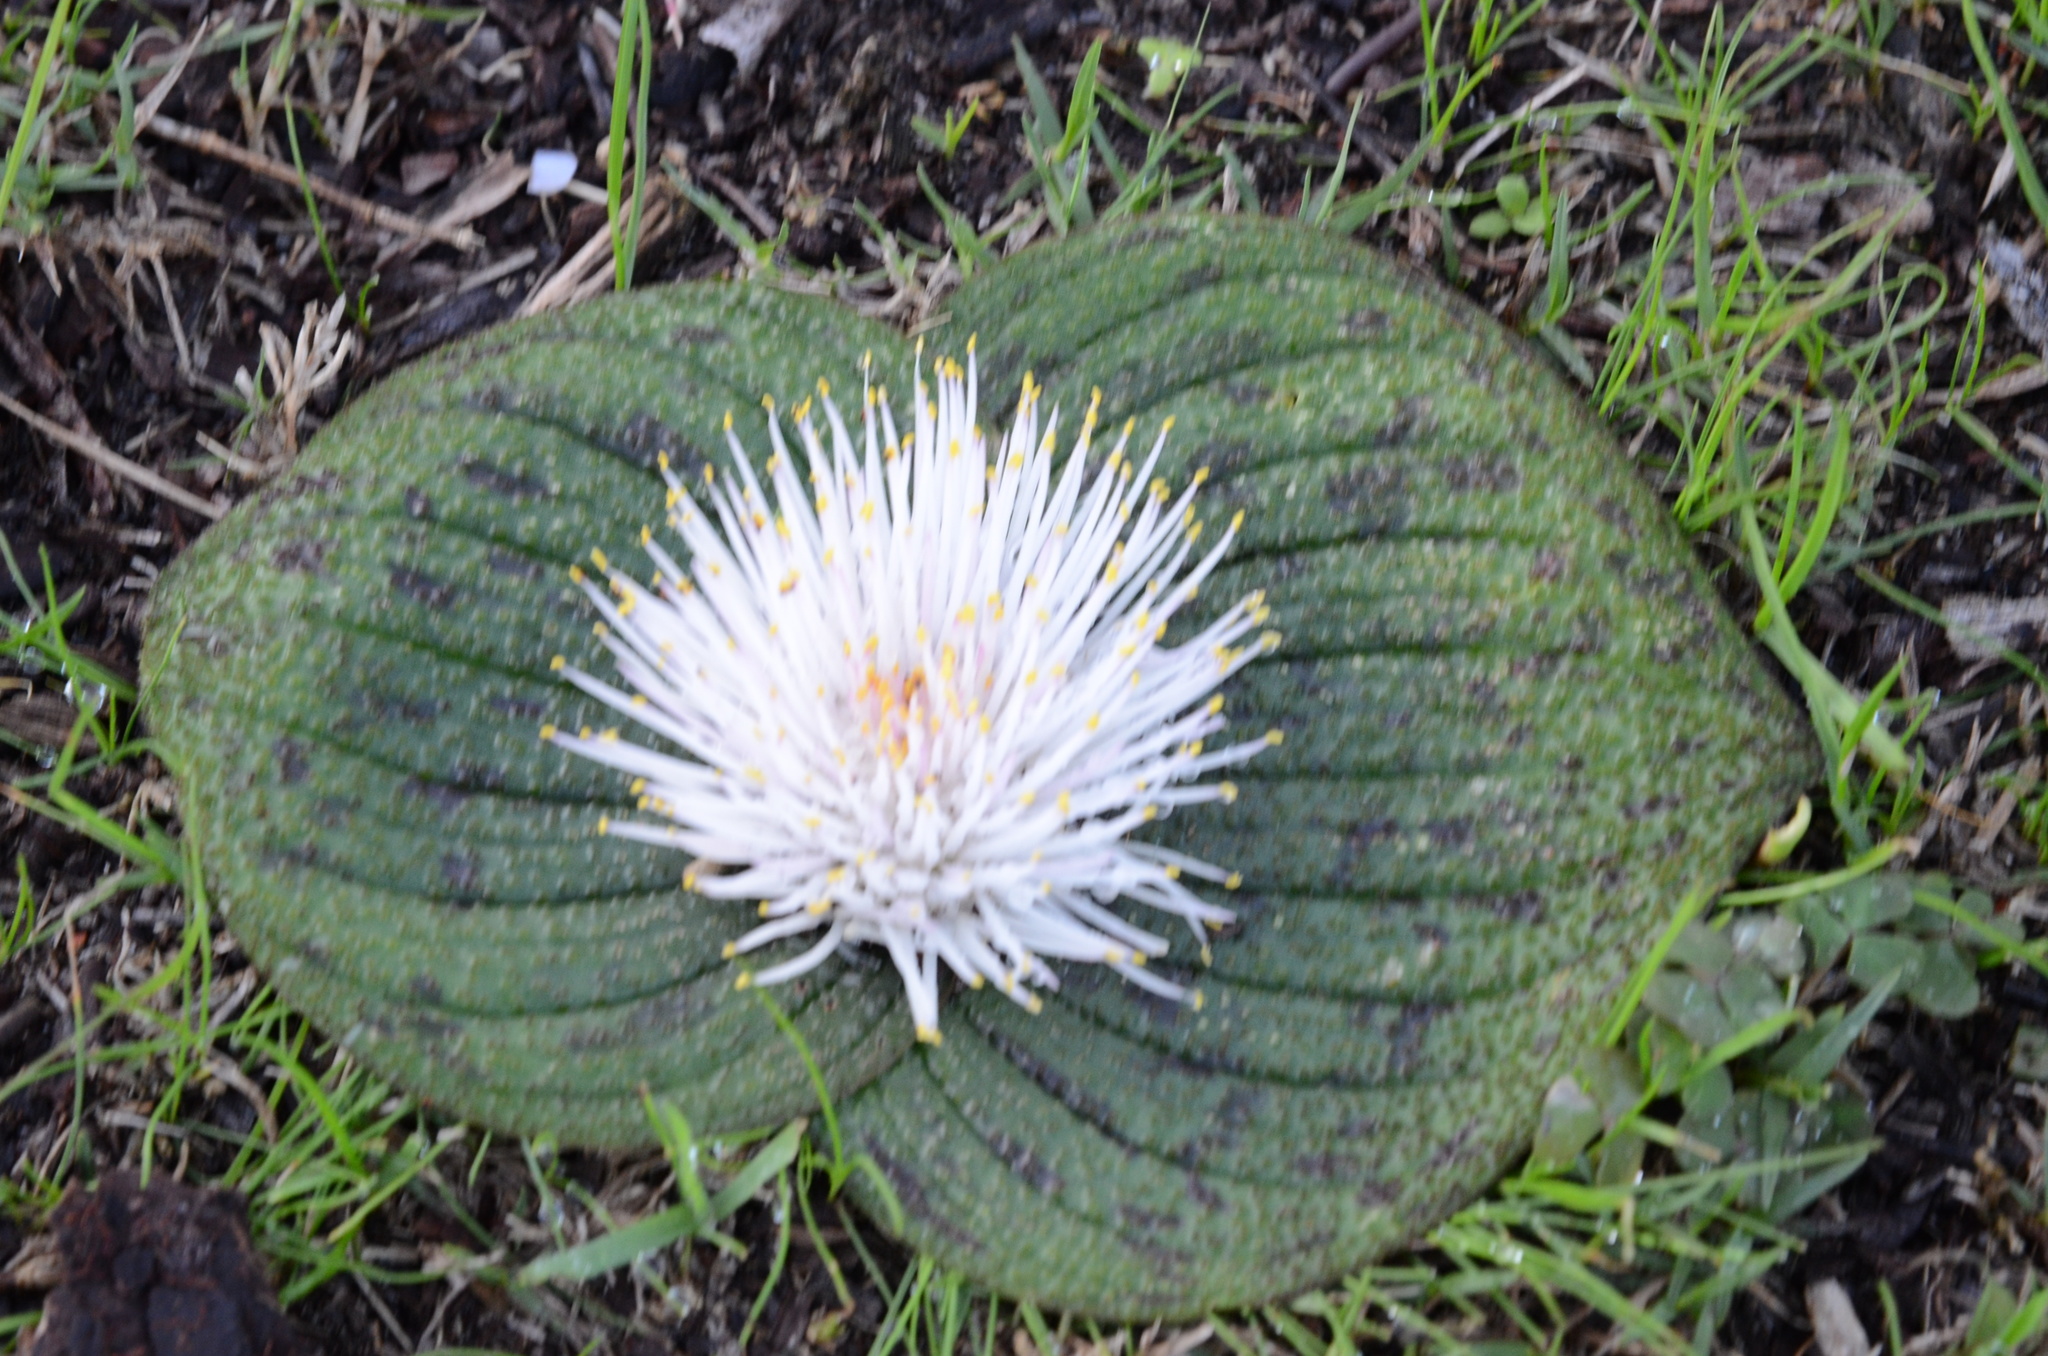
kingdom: Plantae
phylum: Tracheophyta
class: Liliopsida
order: Asparagales
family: Asparagaceae
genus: Massonia
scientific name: Massonia longipes
